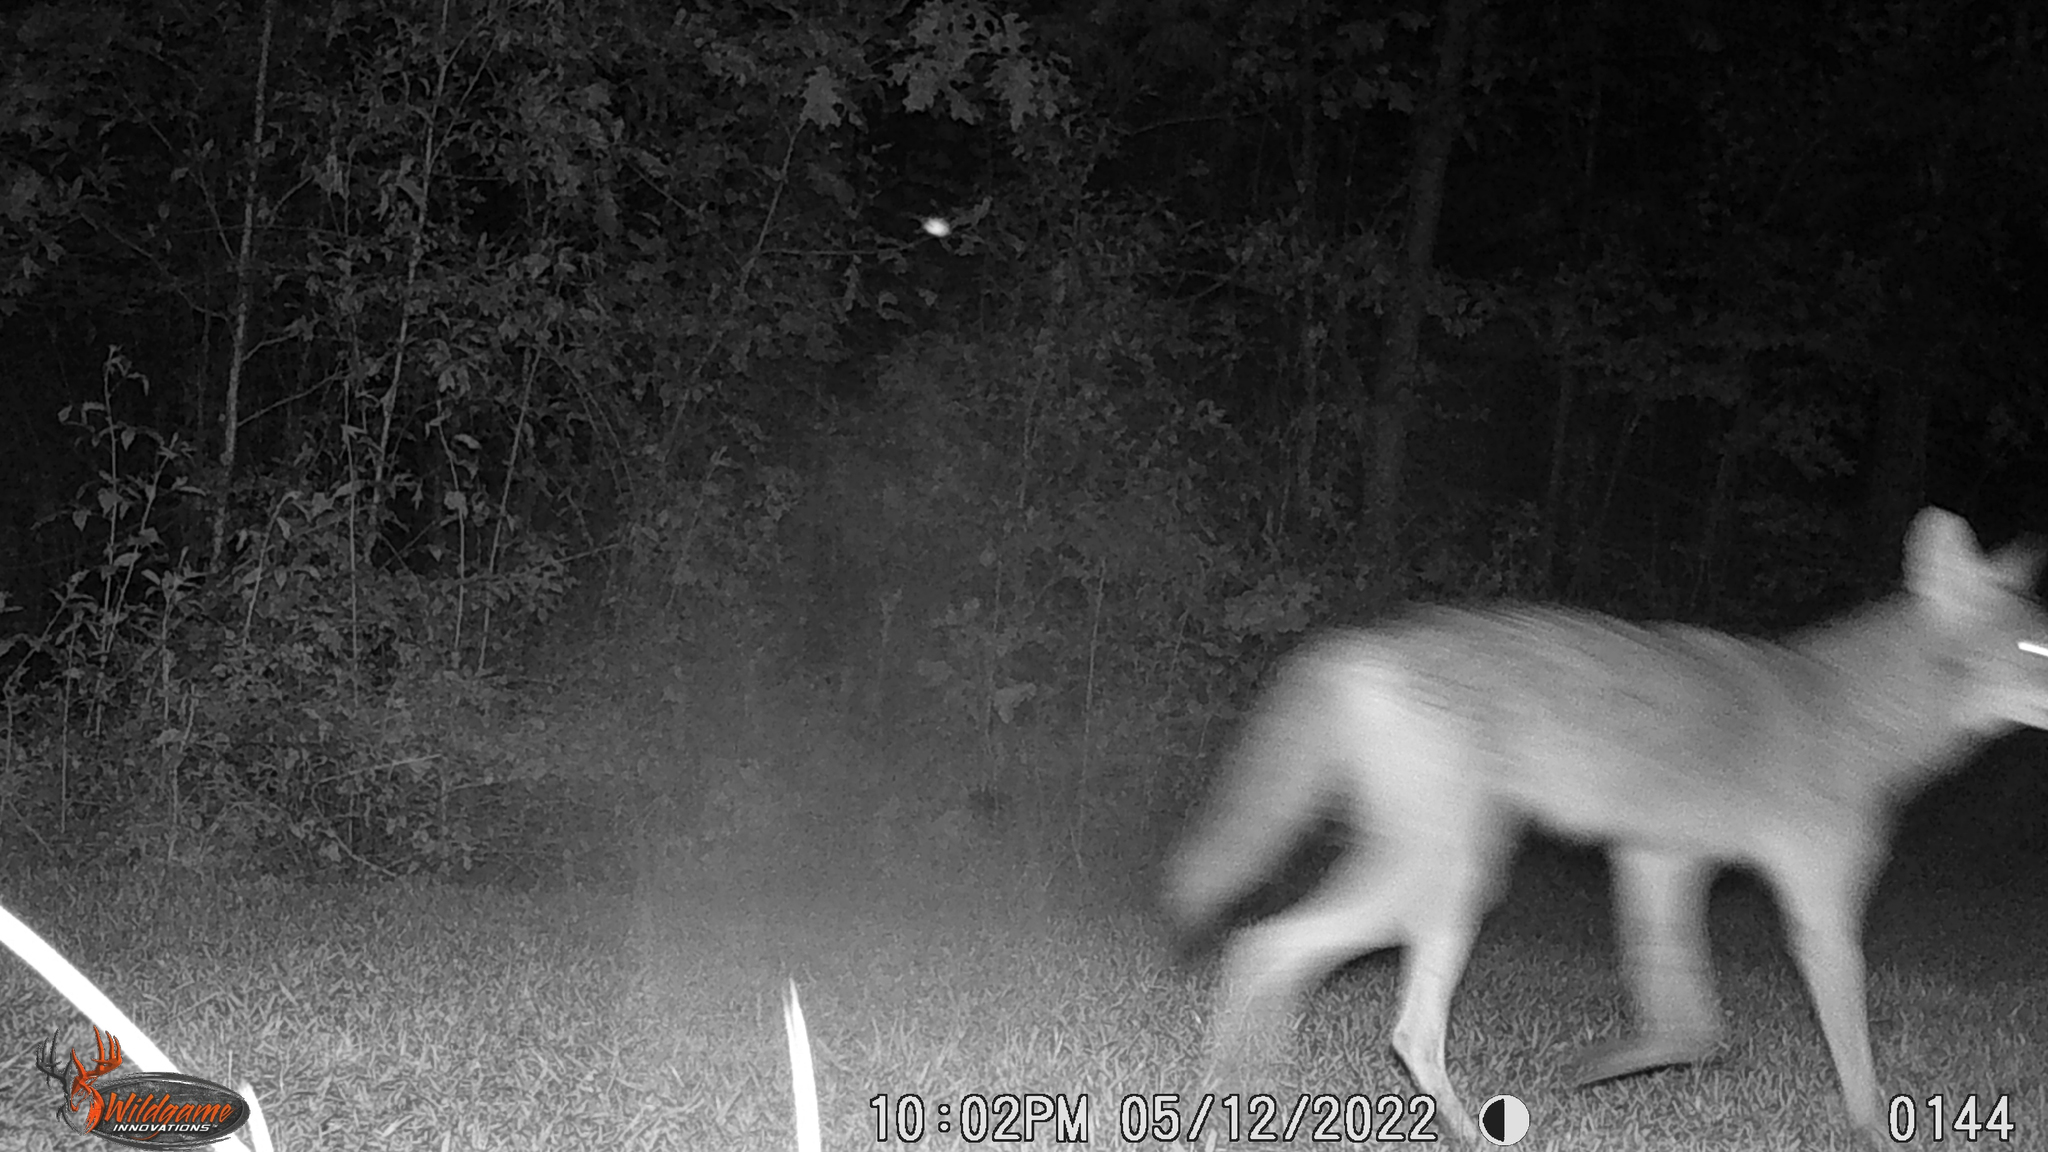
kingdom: Animalia
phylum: Chordata
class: Mammalia
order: Carnivora
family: Canidae
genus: Canis
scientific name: Canis latrans
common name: Coyote
